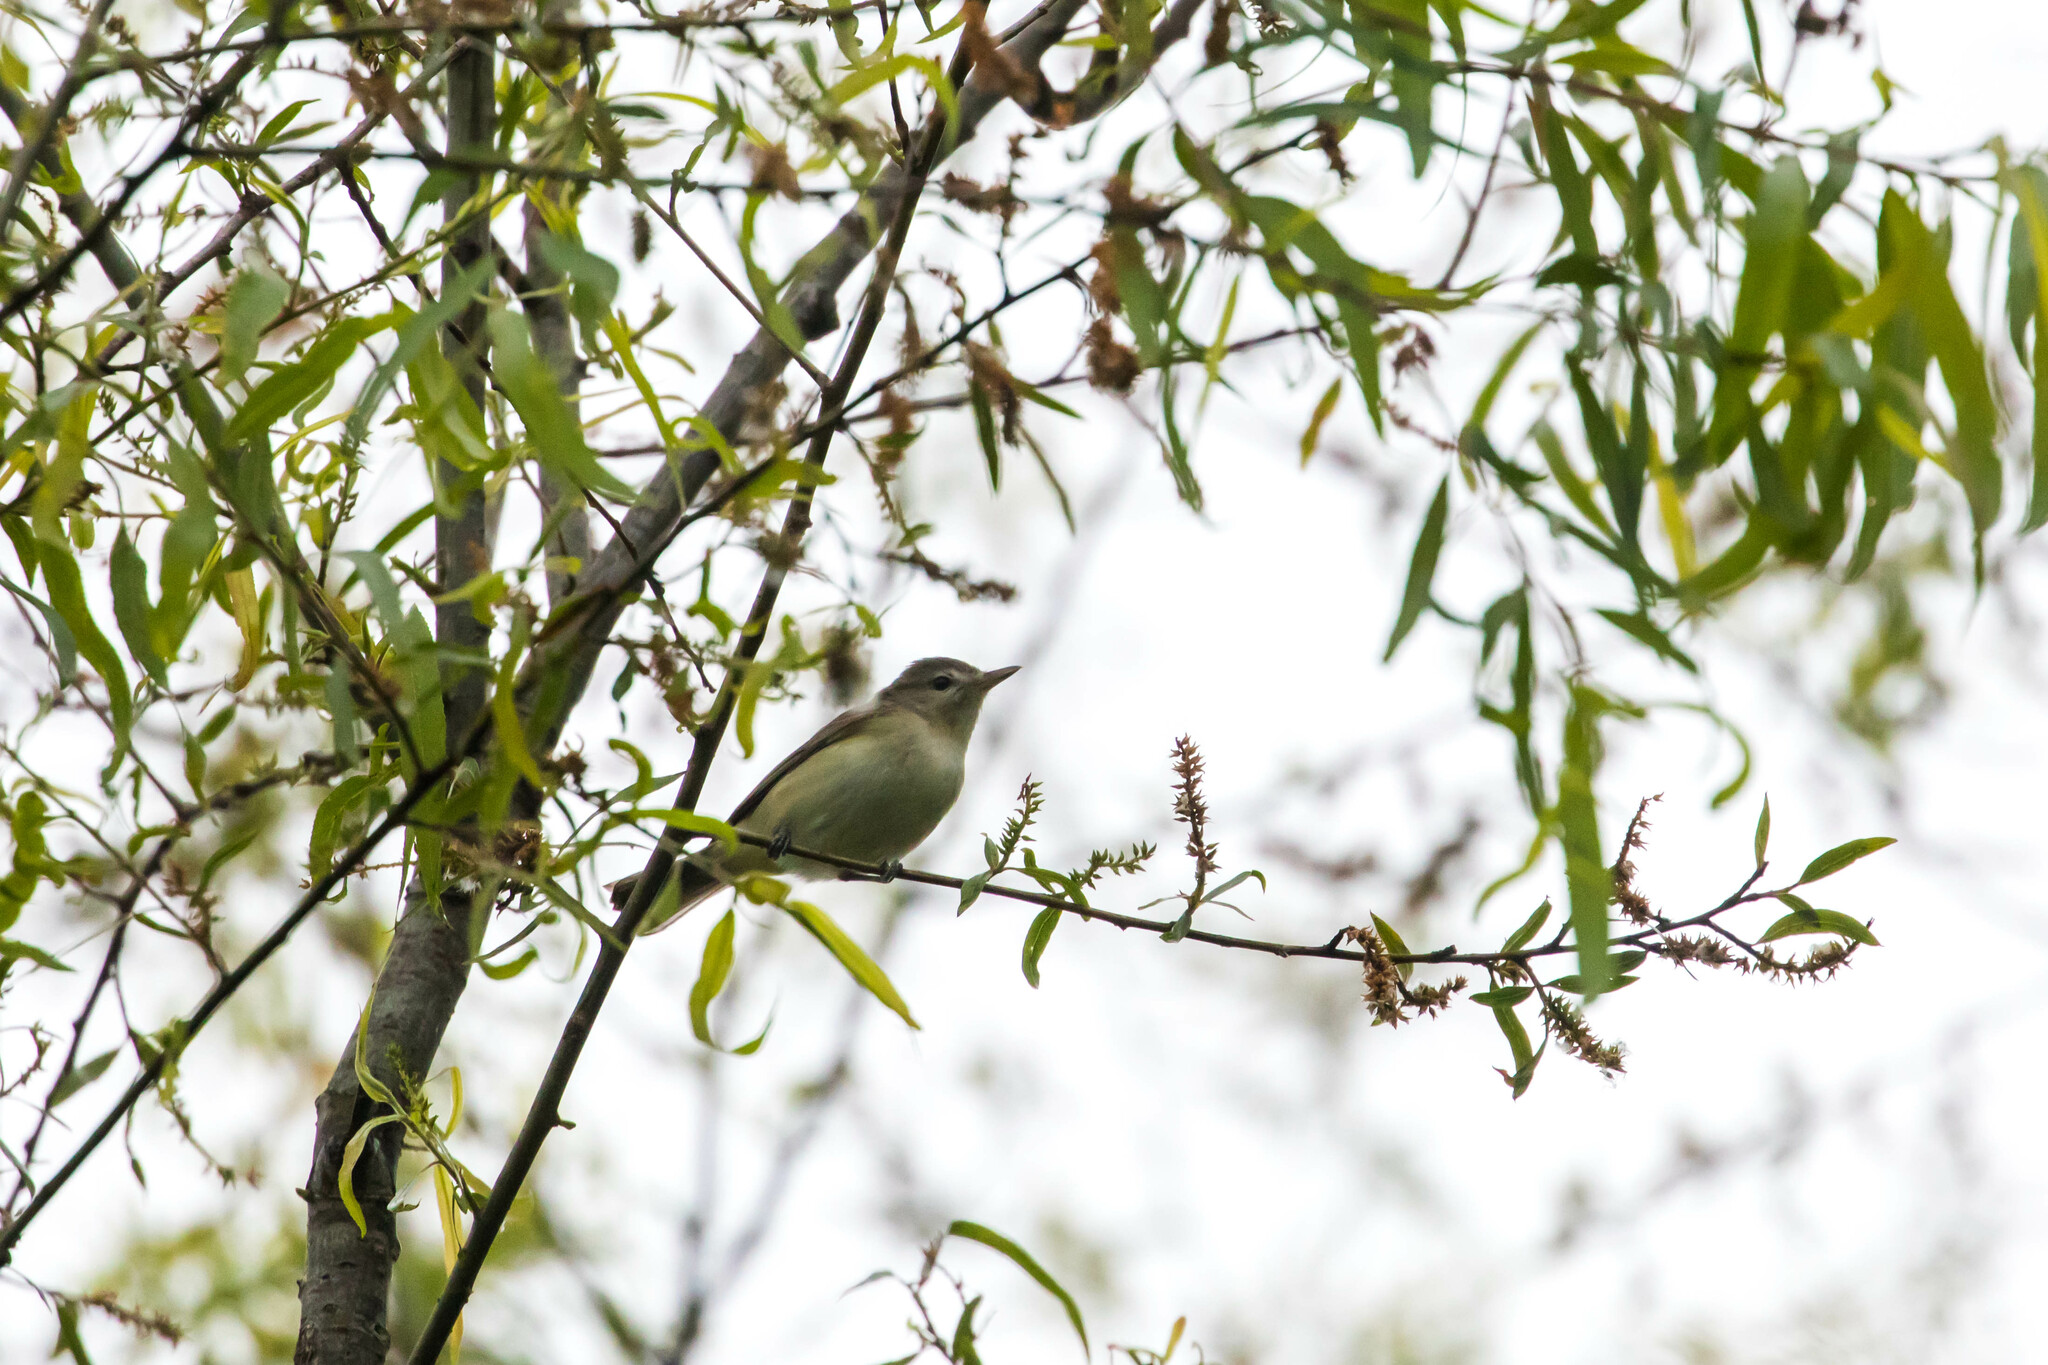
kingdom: Animalia
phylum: Chordata
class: Aves
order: Passeriformes
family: Vireonidae
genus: Vireo
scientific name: Vireo gilvus
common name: Warbling vireo
